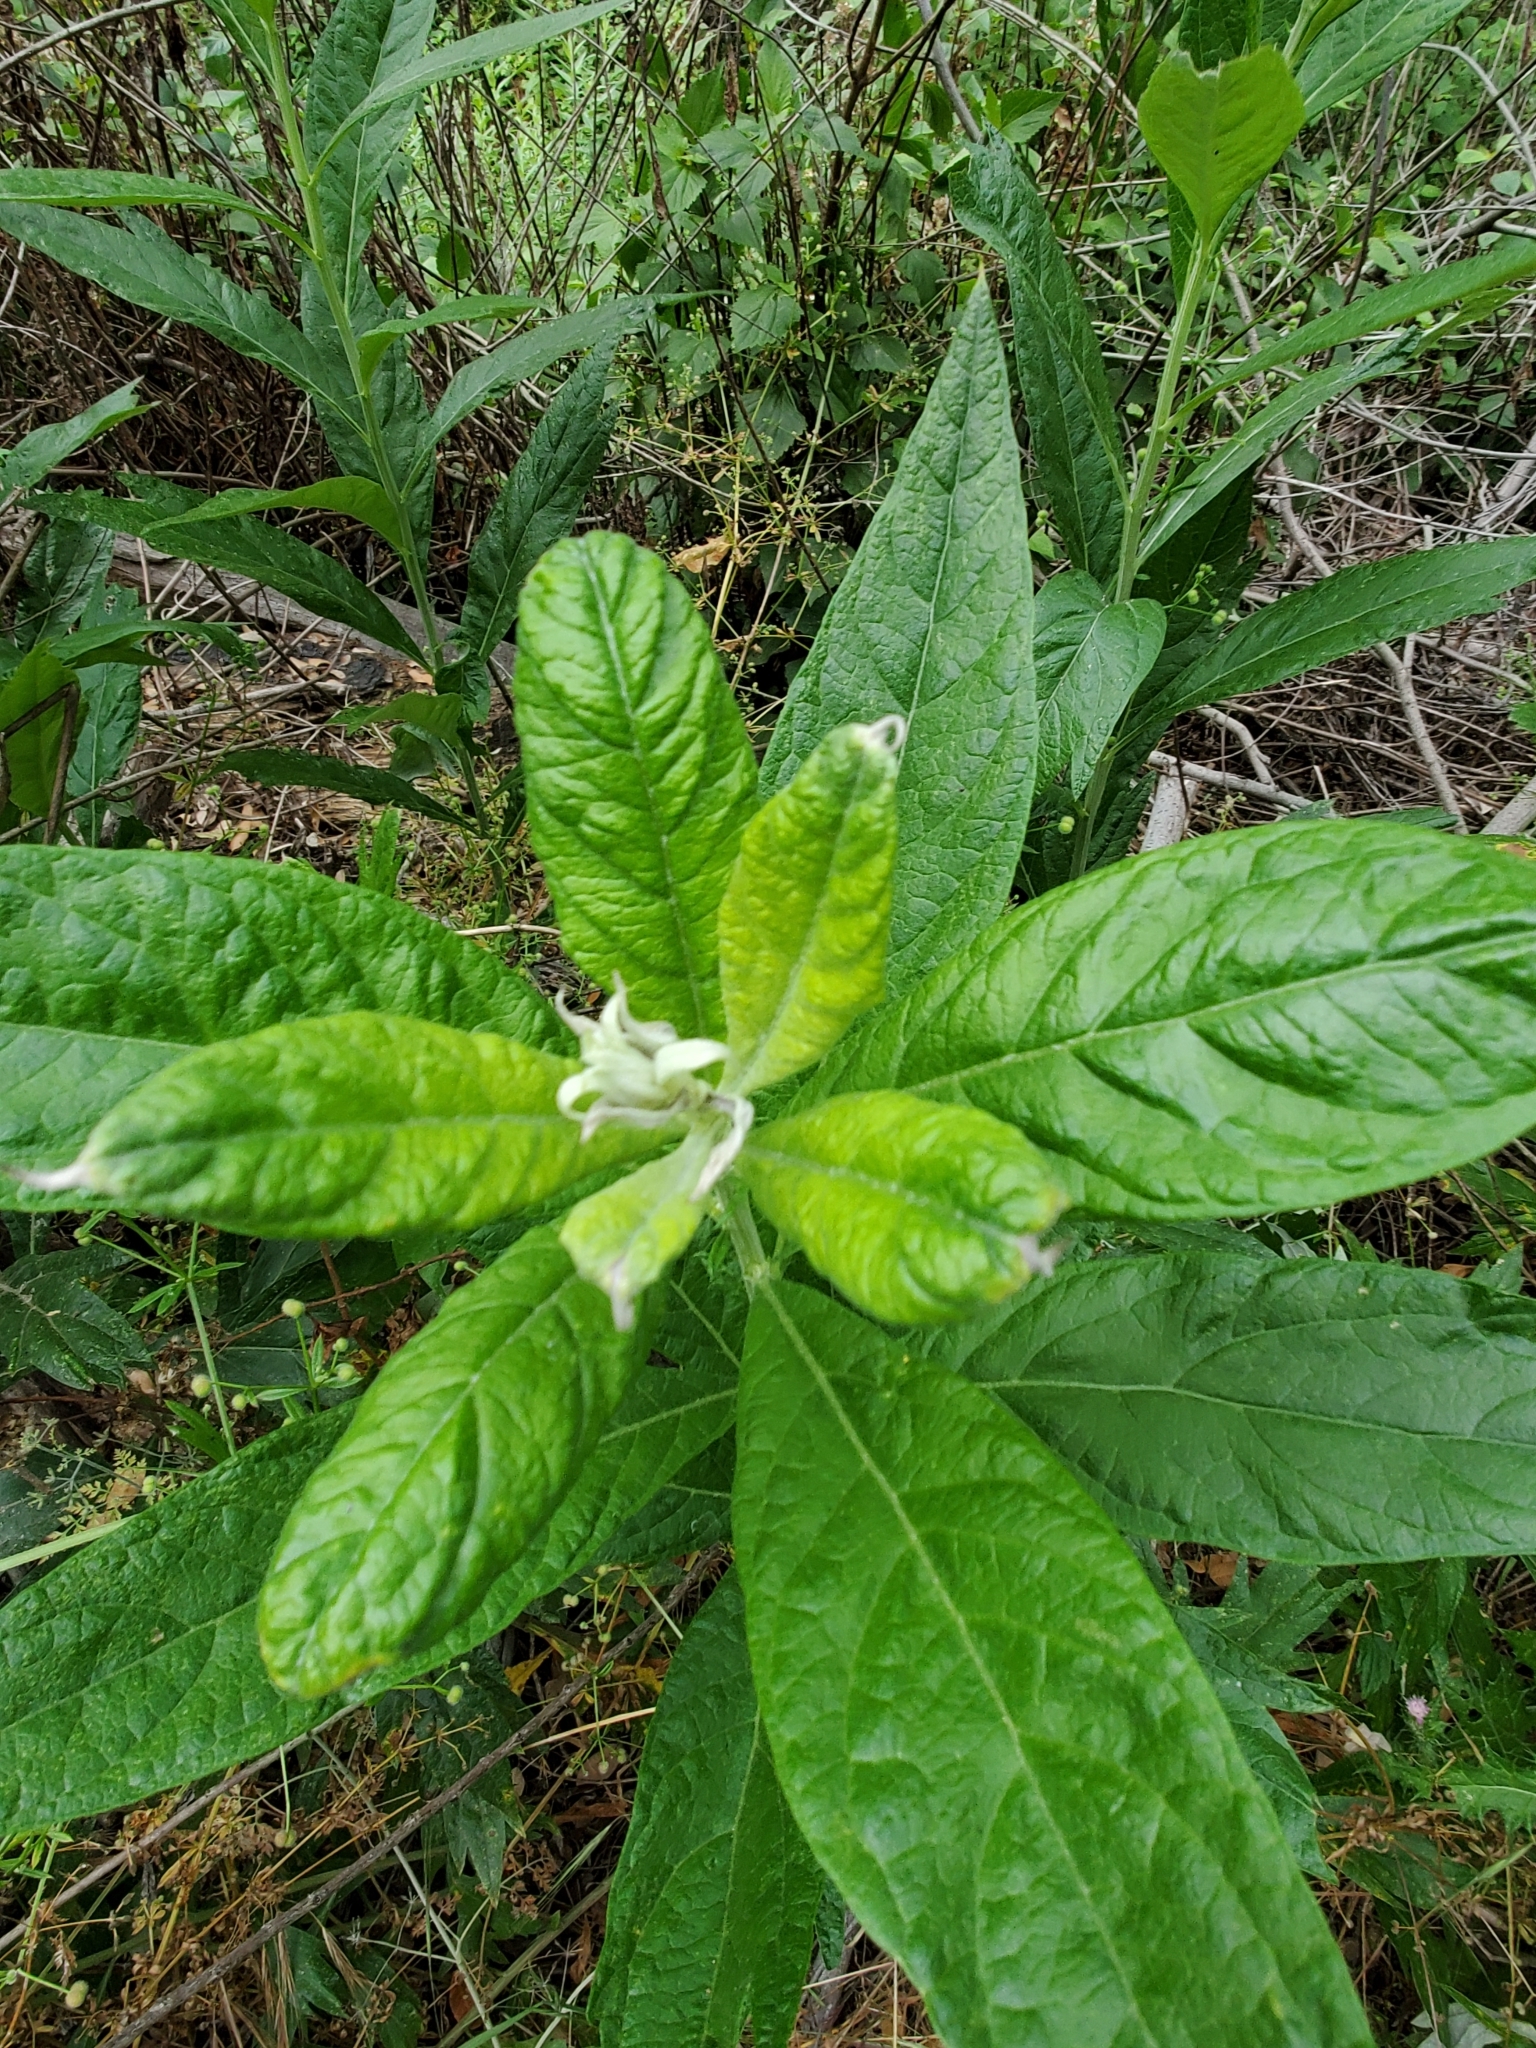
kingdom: Plantae
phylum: Tracheophyta
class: Magnoliopsida
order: Asterales
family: Asteraceae
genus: Artemisia
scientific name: Artemisia douglasiana
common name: Northwest mugwort
